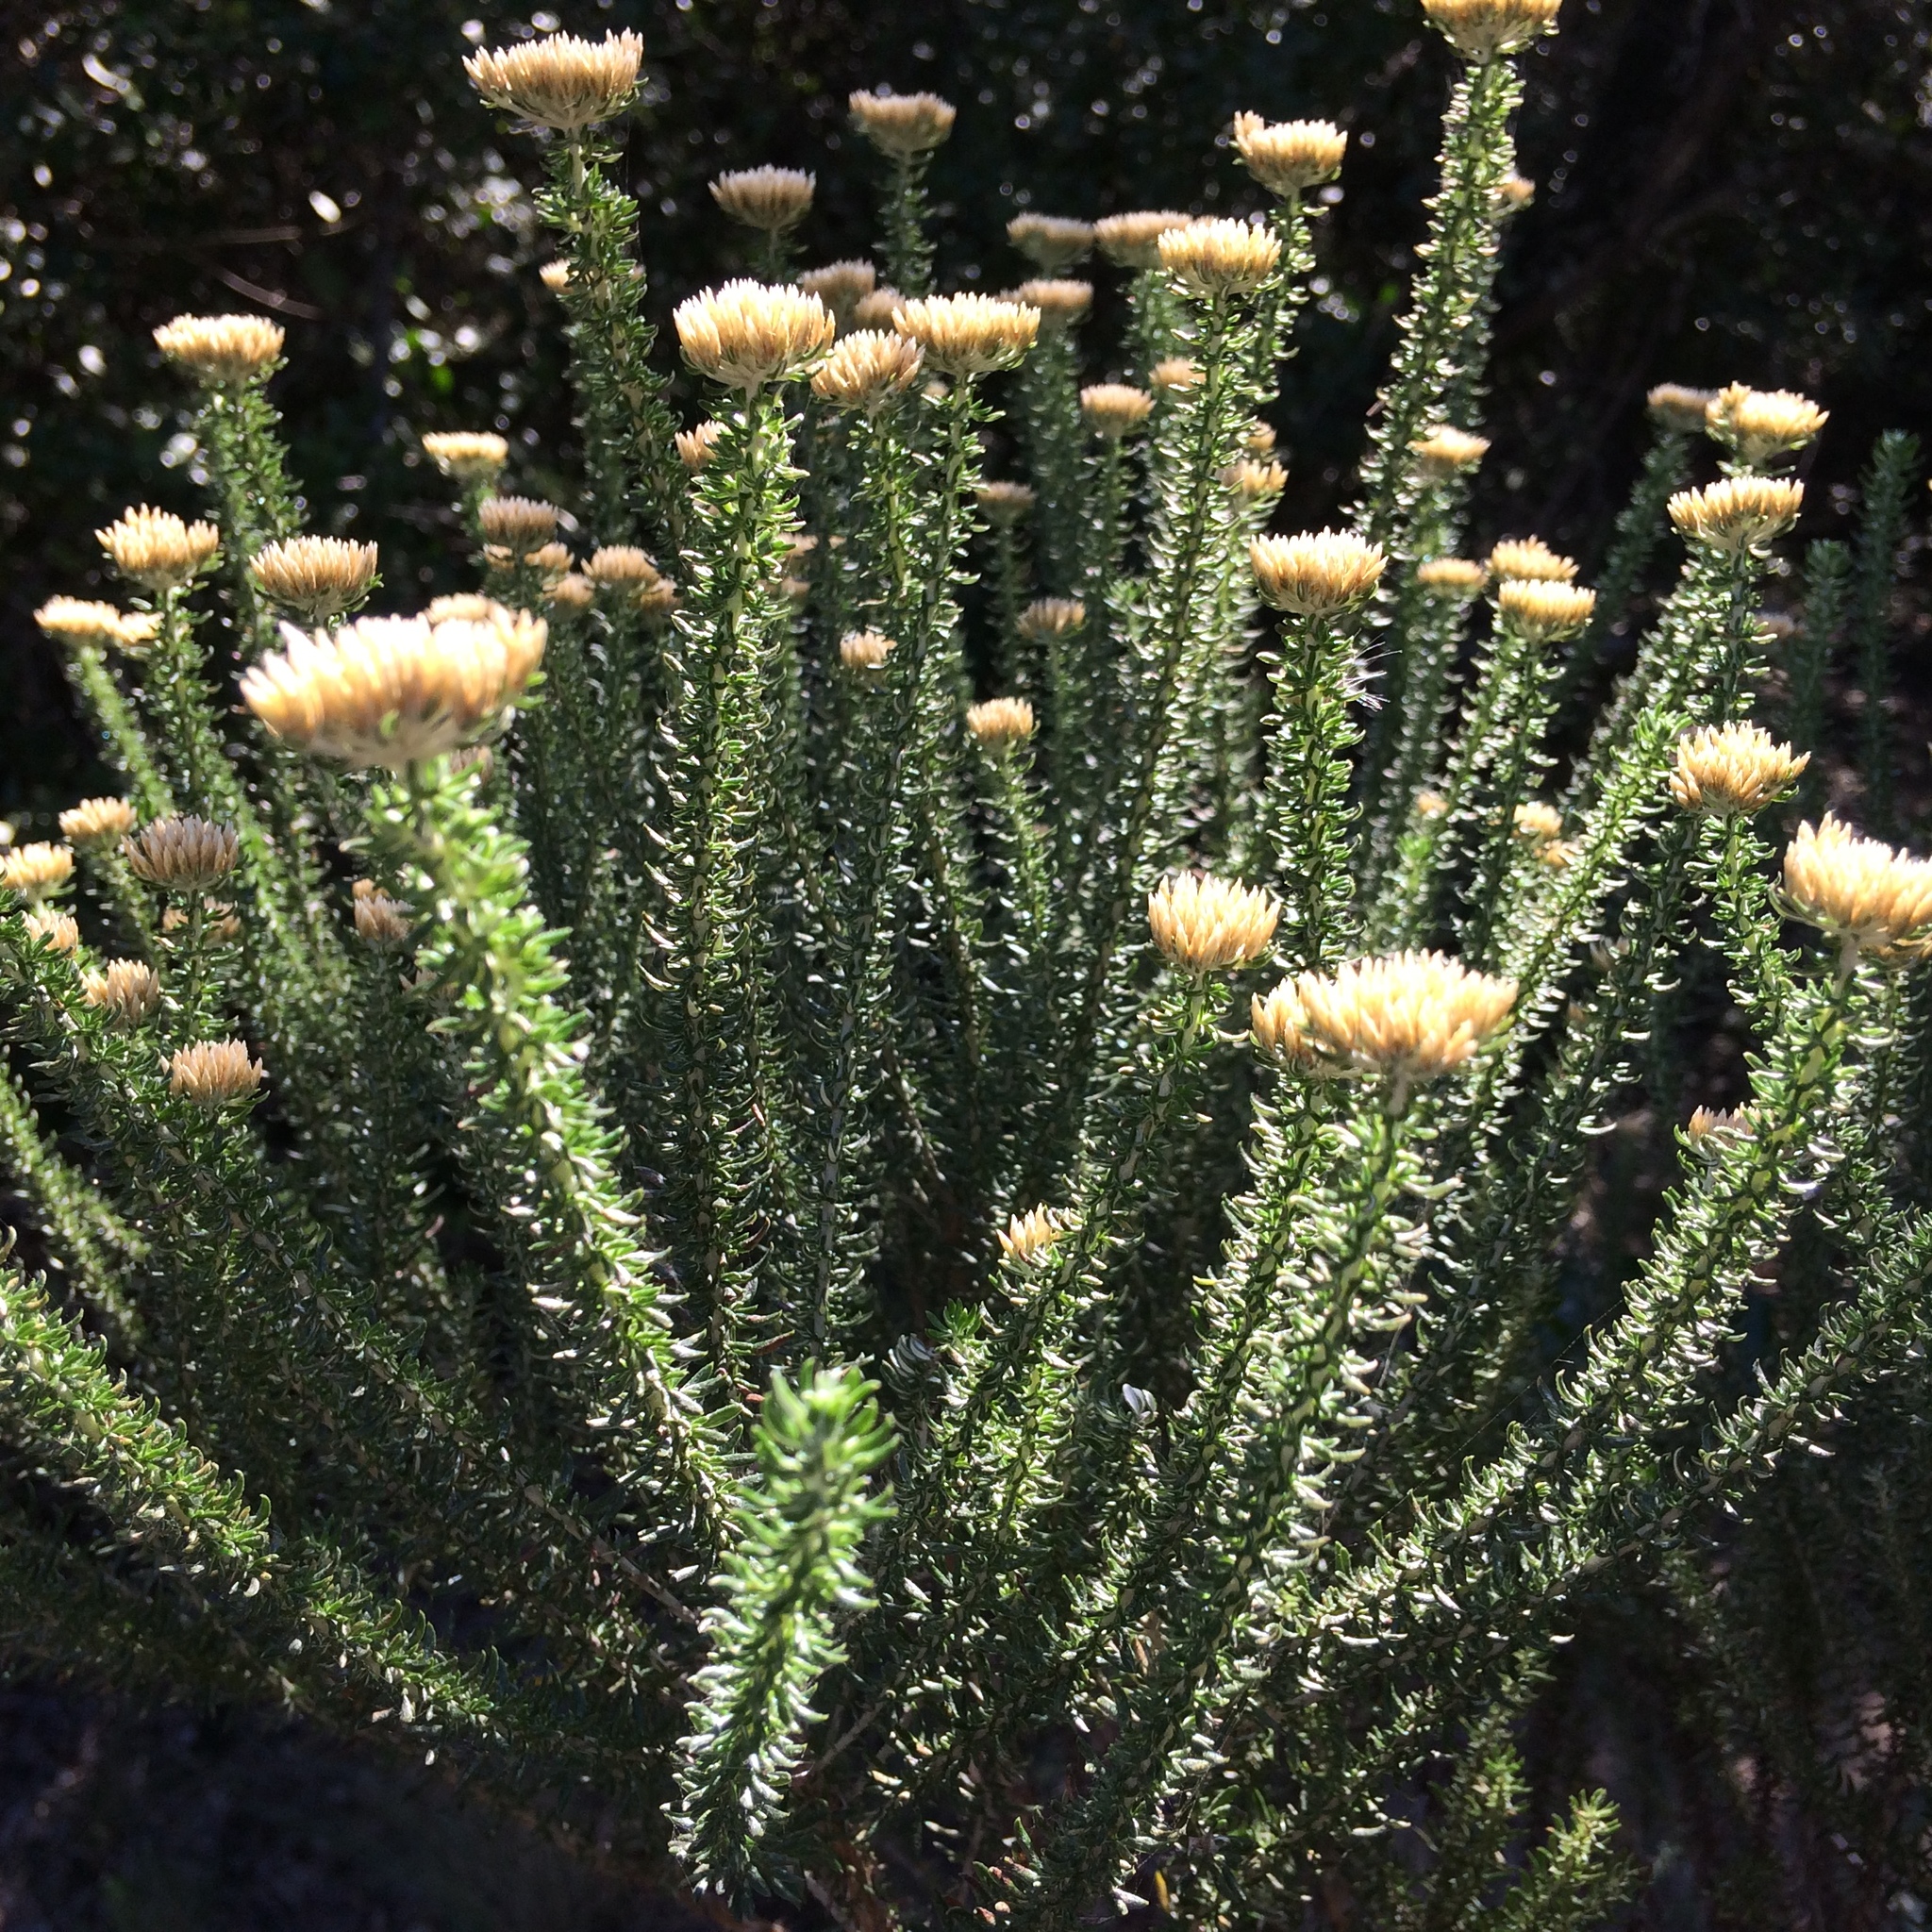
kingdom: Plantae
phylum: Tracheophyta
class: Magnoliopsida
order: Asterales
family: Asteraceae
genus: Metalasia
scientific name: Metalasia muricata
